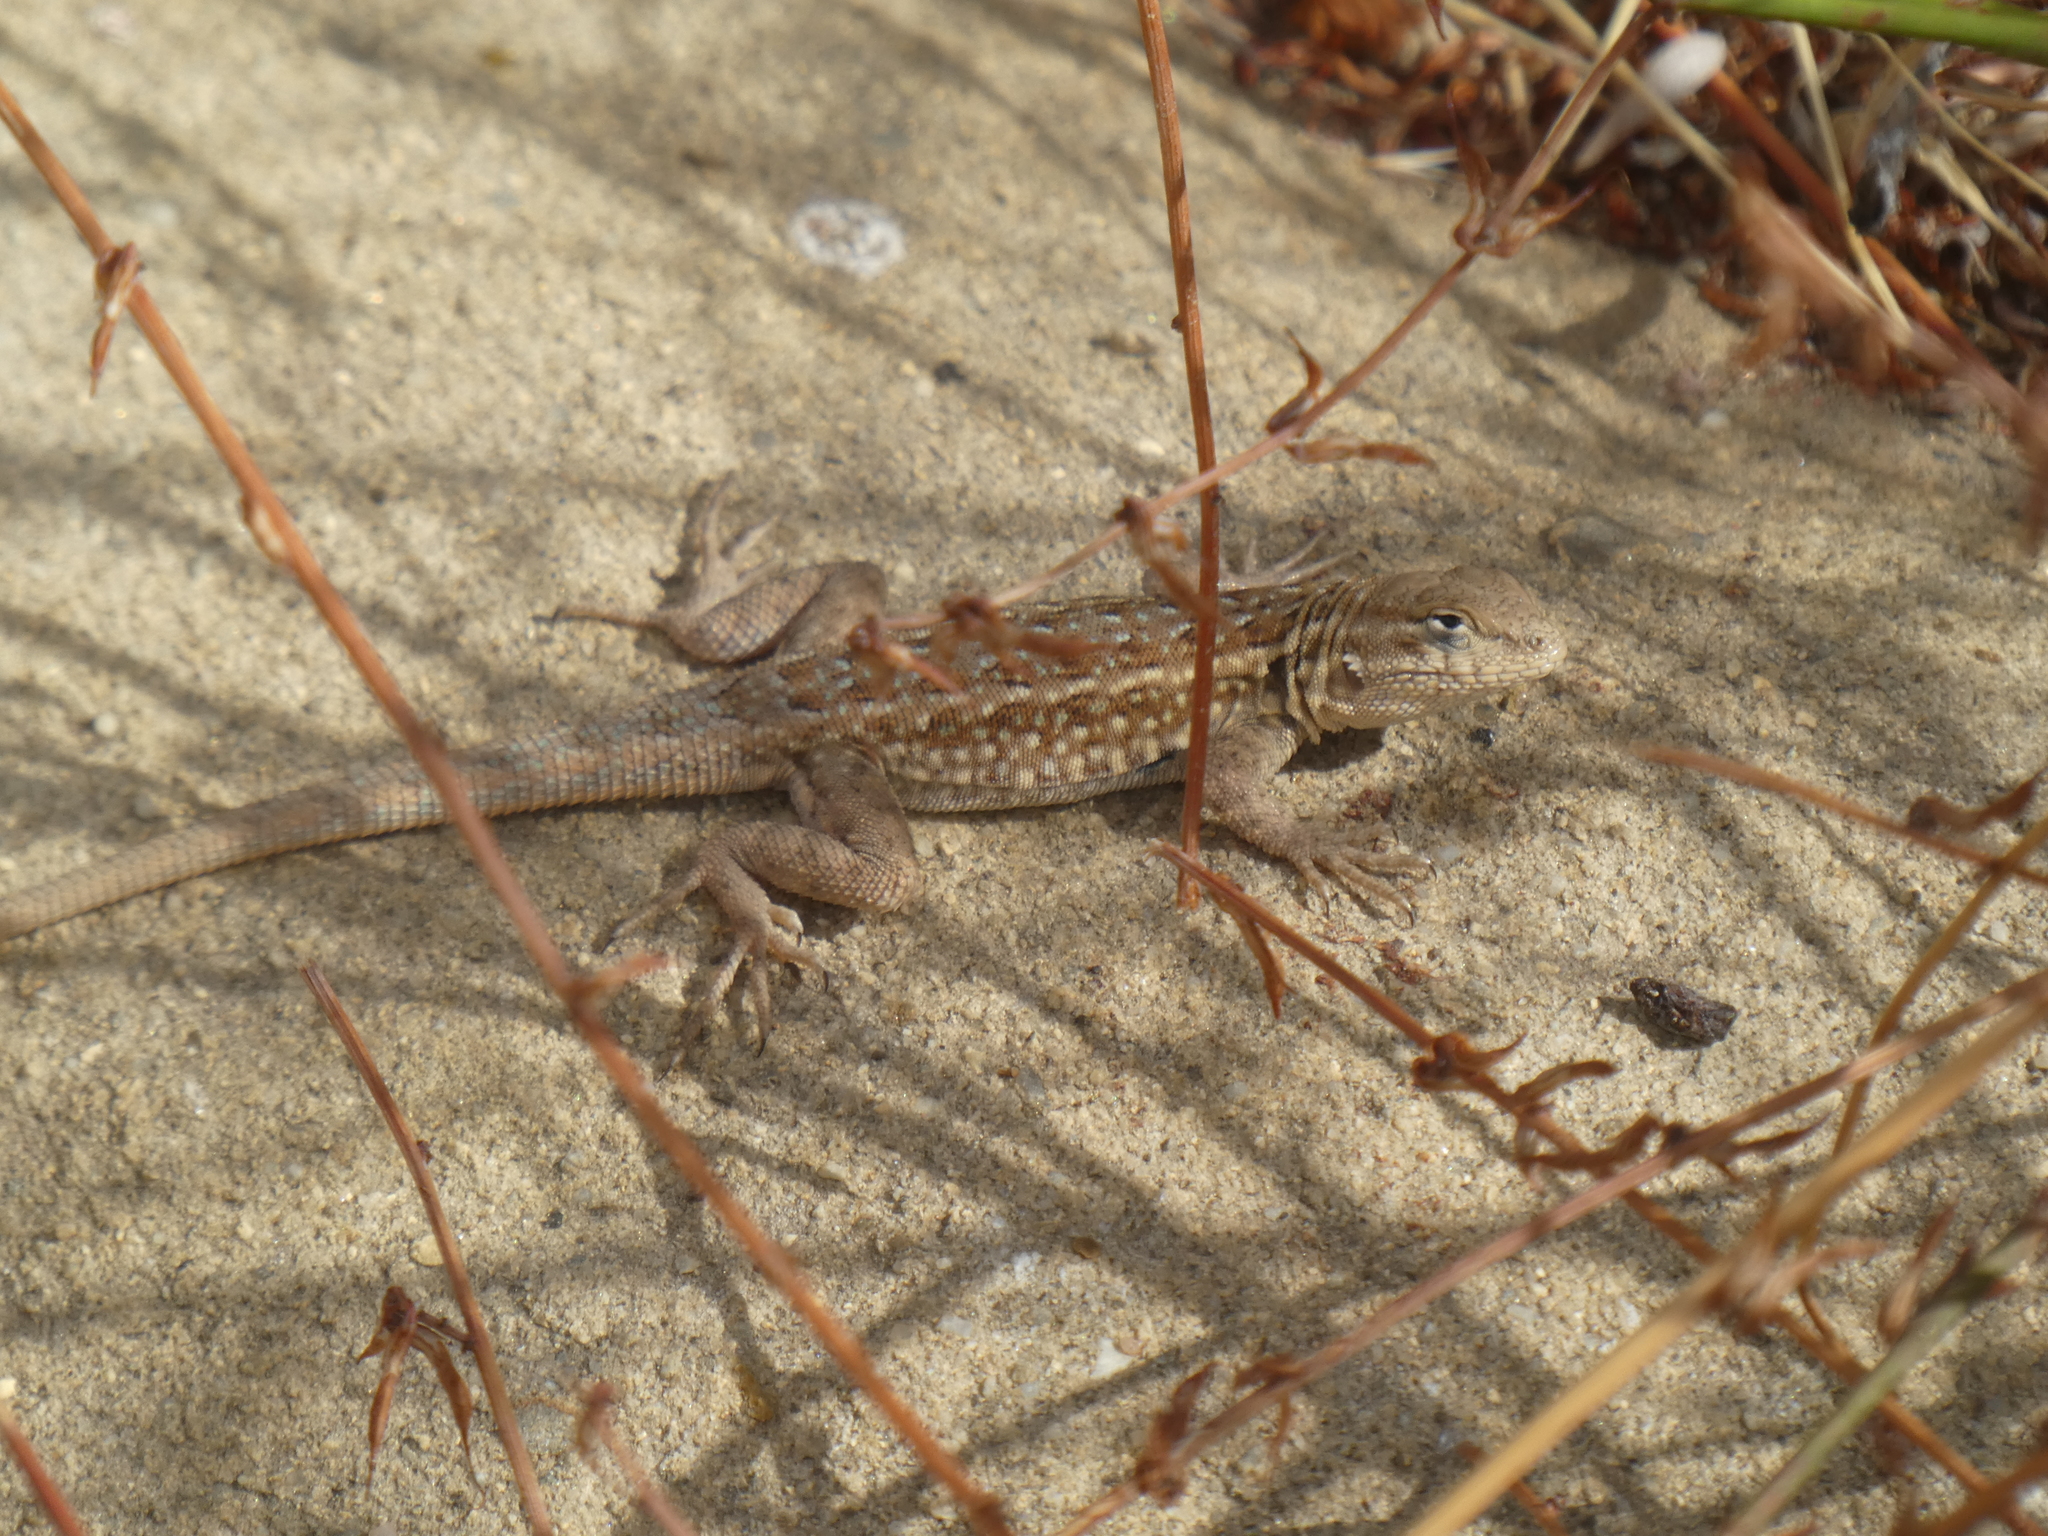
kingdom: Animalia
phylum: Chordata
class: Squamata
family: Phrynosomatidae
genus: Uta
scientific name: Uta stansburiana
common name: Side-blotched lizard
